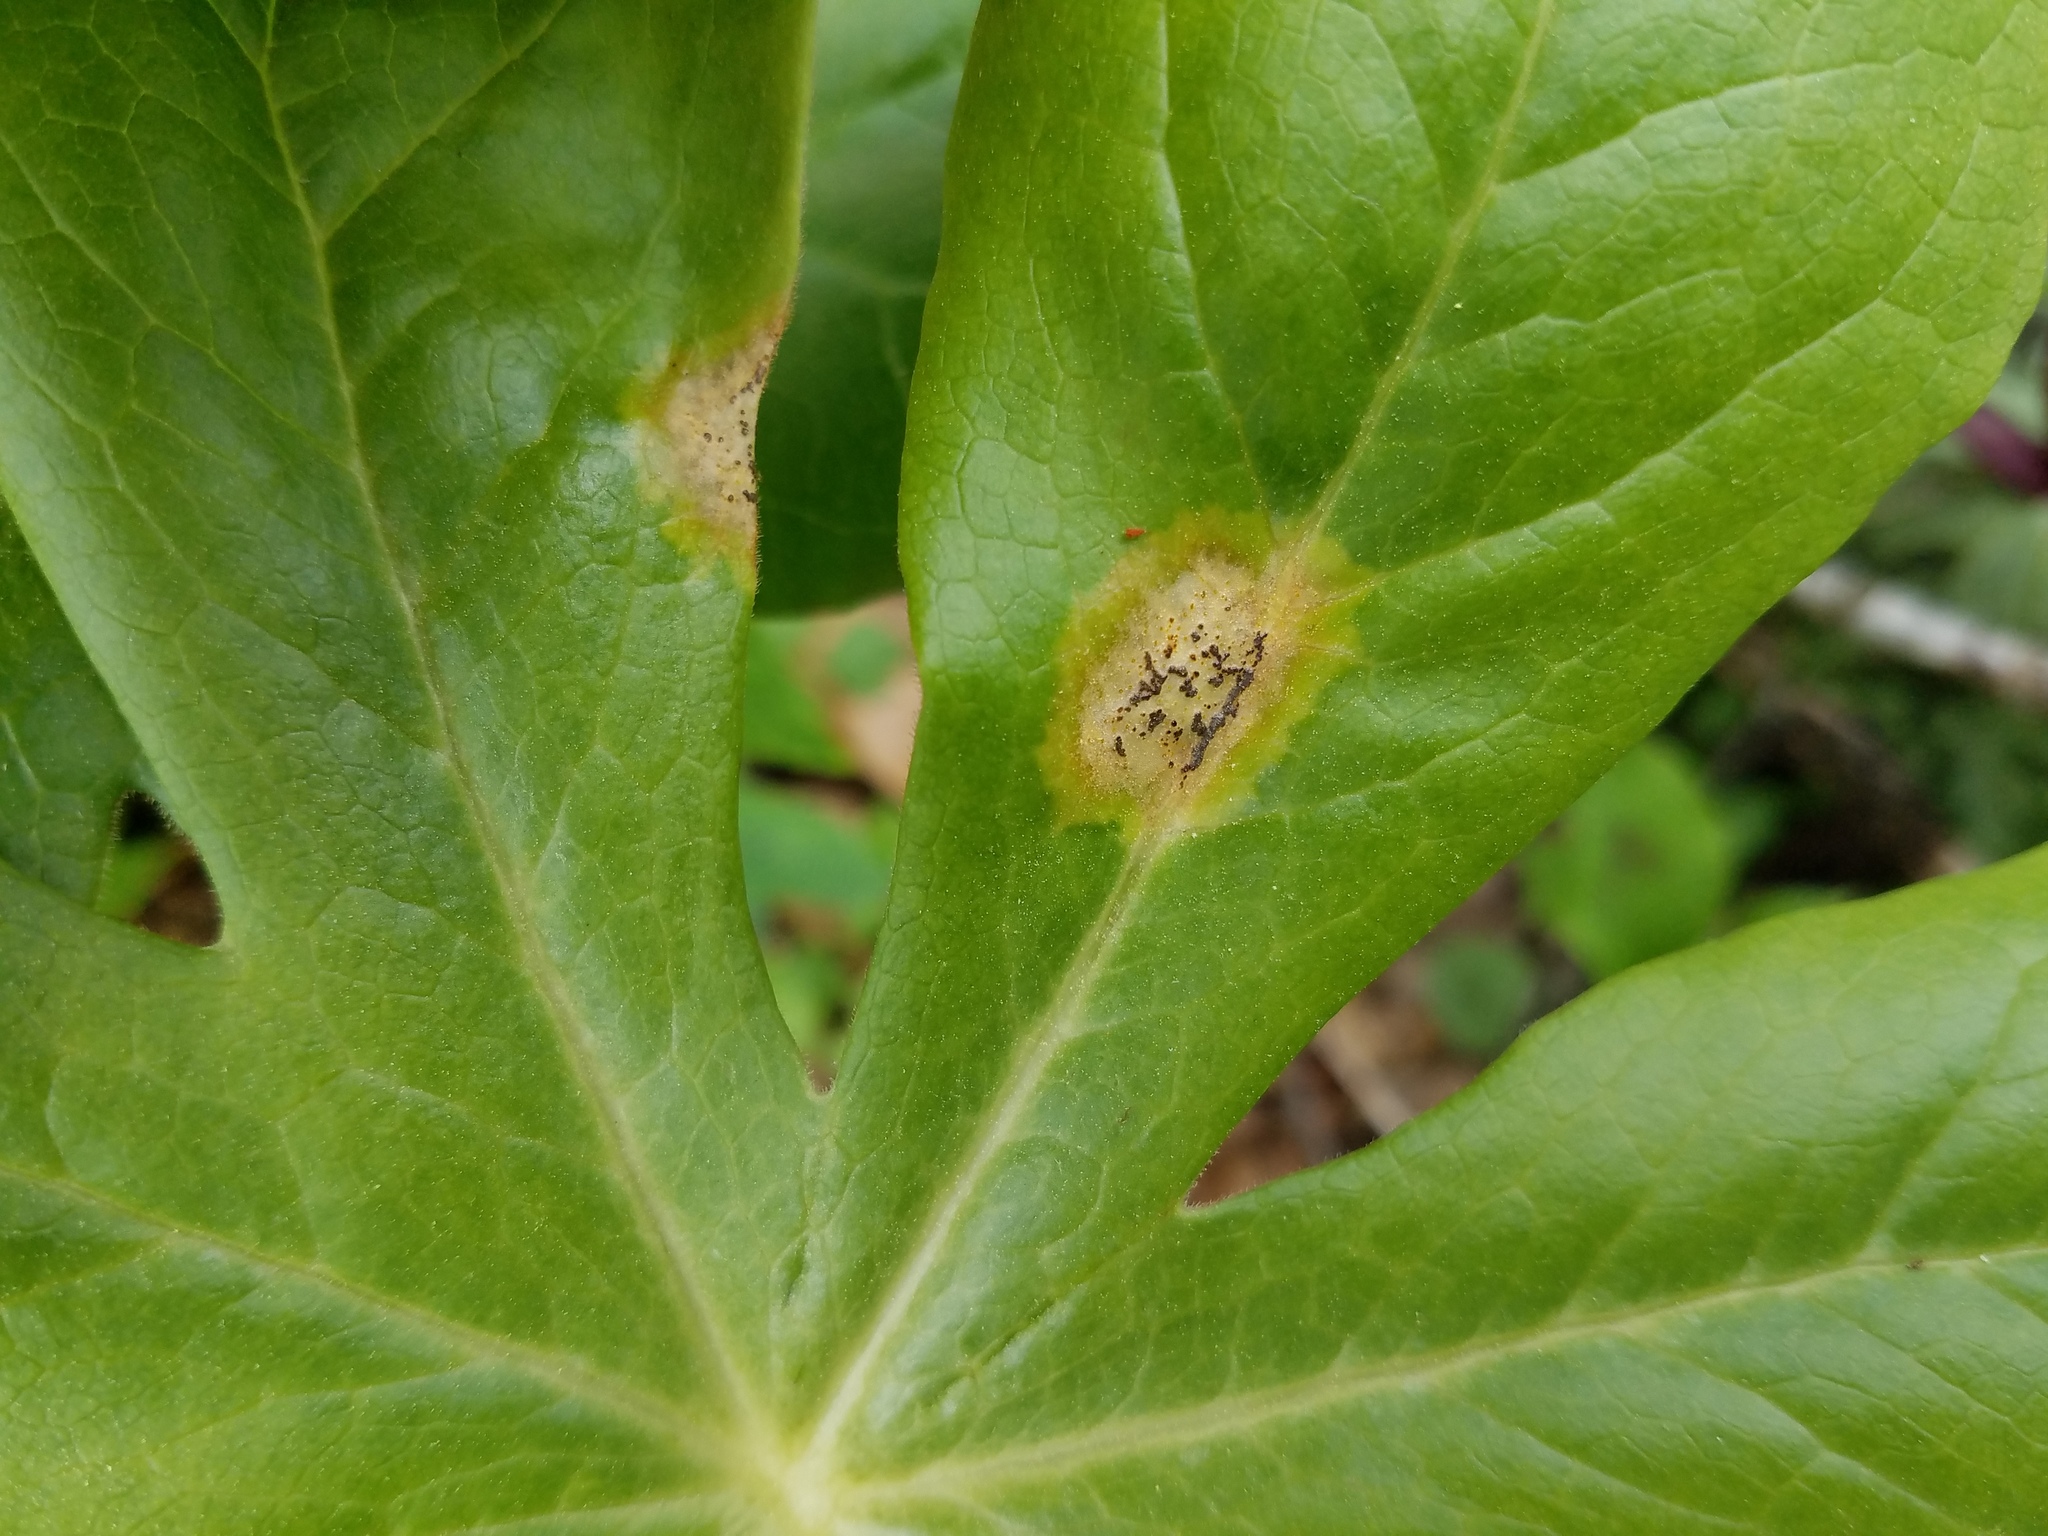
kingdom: Fungi
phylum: Basidiomycota
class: Pucciniomycetes
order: Pucciniales
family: Pucciniaceae
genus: Puccinia
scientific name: Puccinia podophylli
